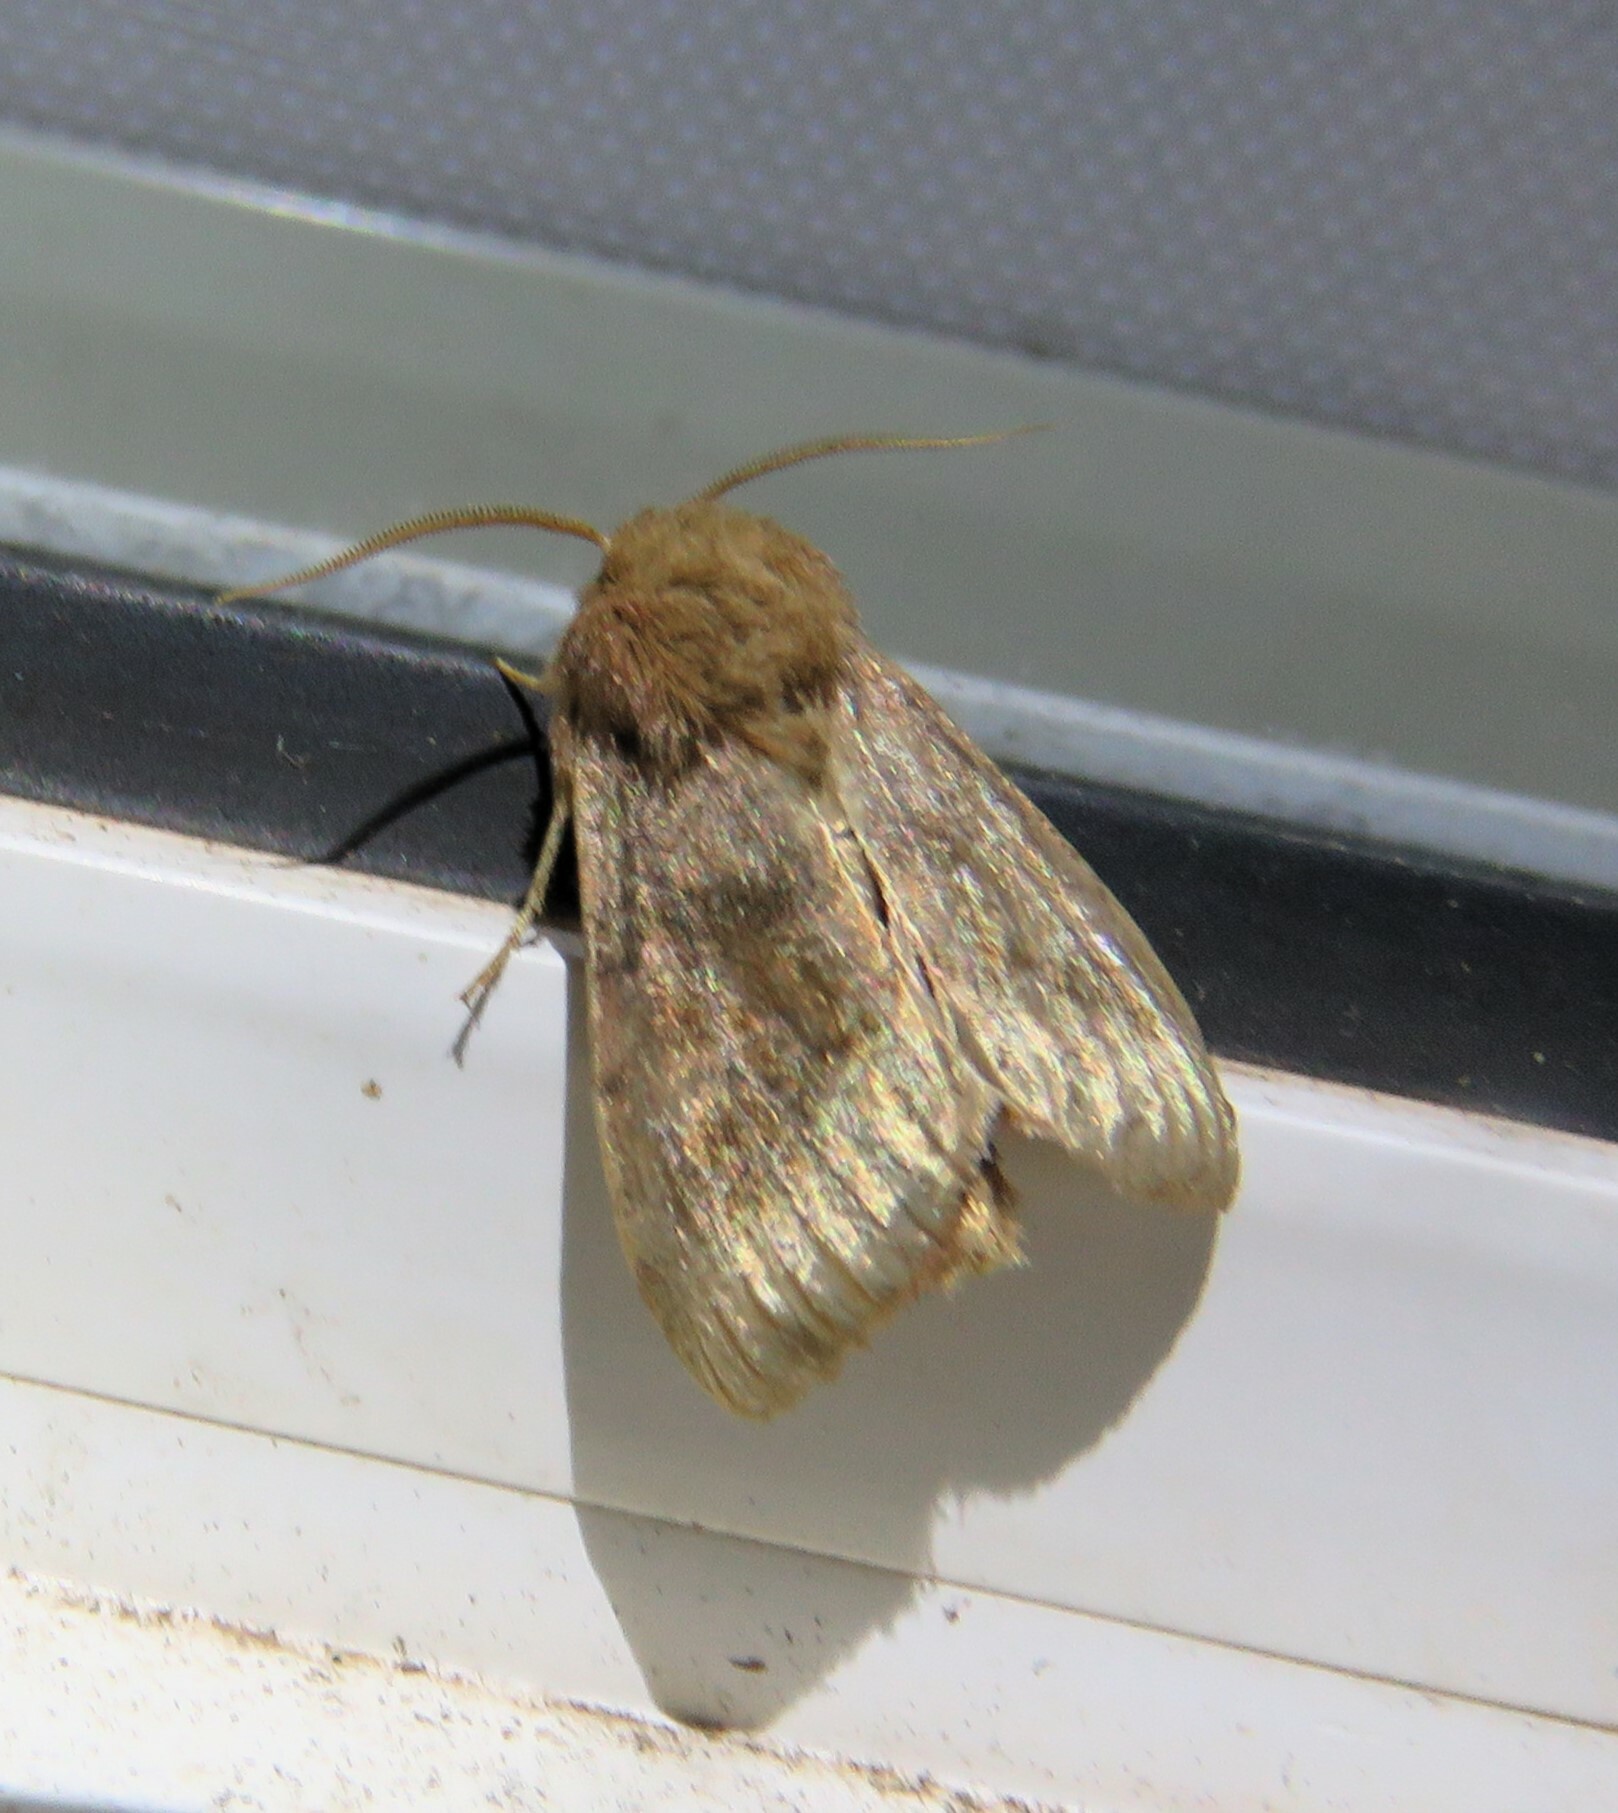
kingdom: Animalia
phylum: Arthropoda
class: Insecta
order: Lepidoptera
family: Noctuidae
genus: Nephelodes
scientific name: Nephelodes minians
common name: Bronzed cutworm
